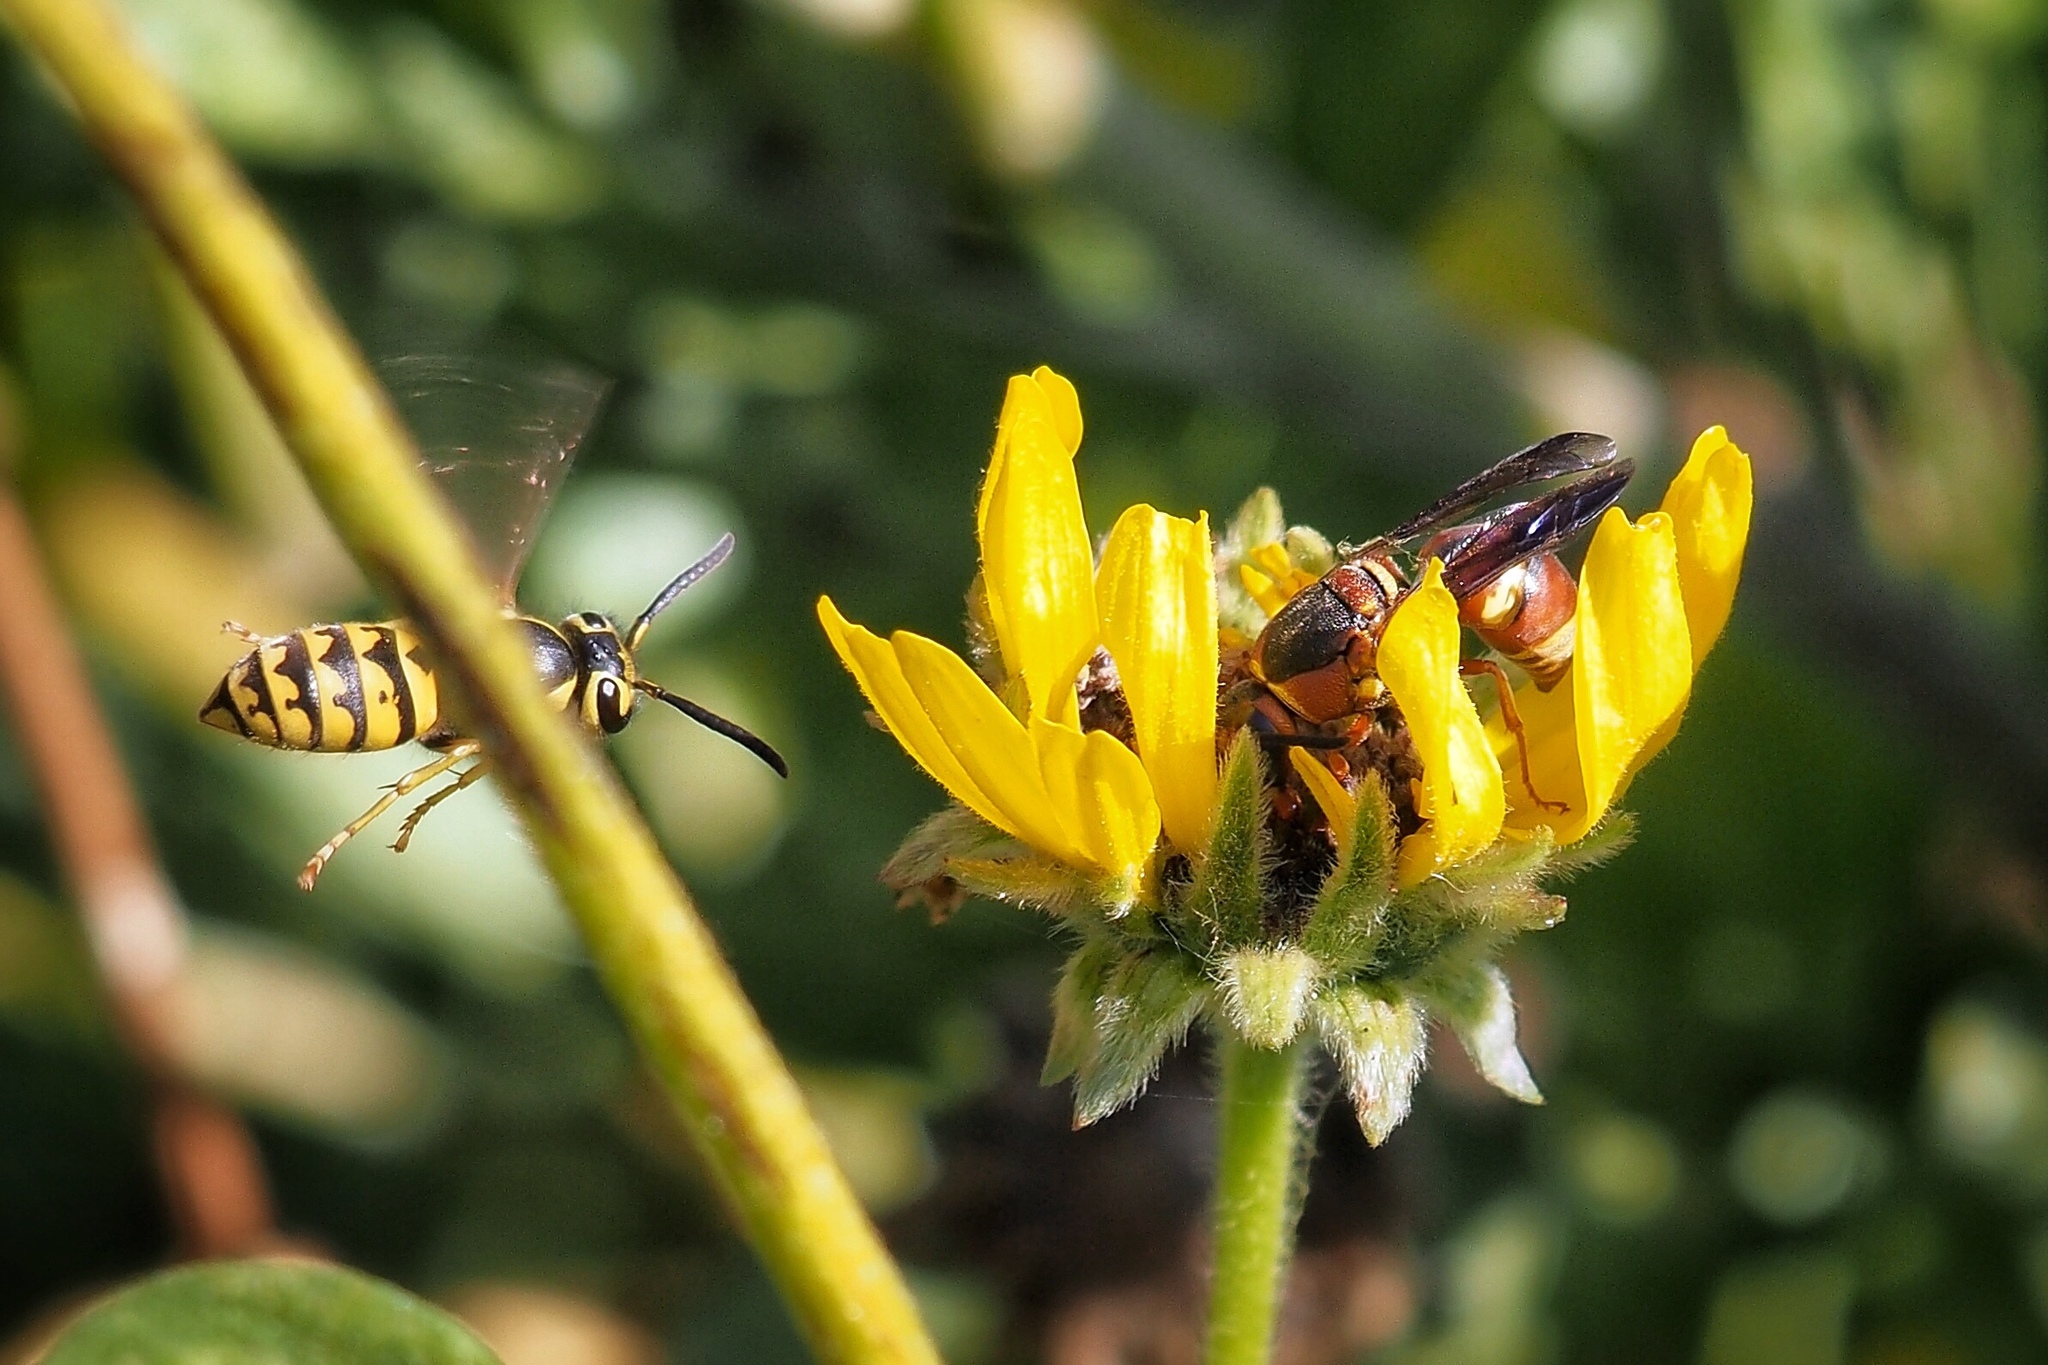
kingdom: Animalia
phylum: Arthropoda
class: Insecta
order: Hymenoptera
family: Vespidae
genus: Vespula
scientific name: Vespula pensylvanica
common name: Western yellowjacket
